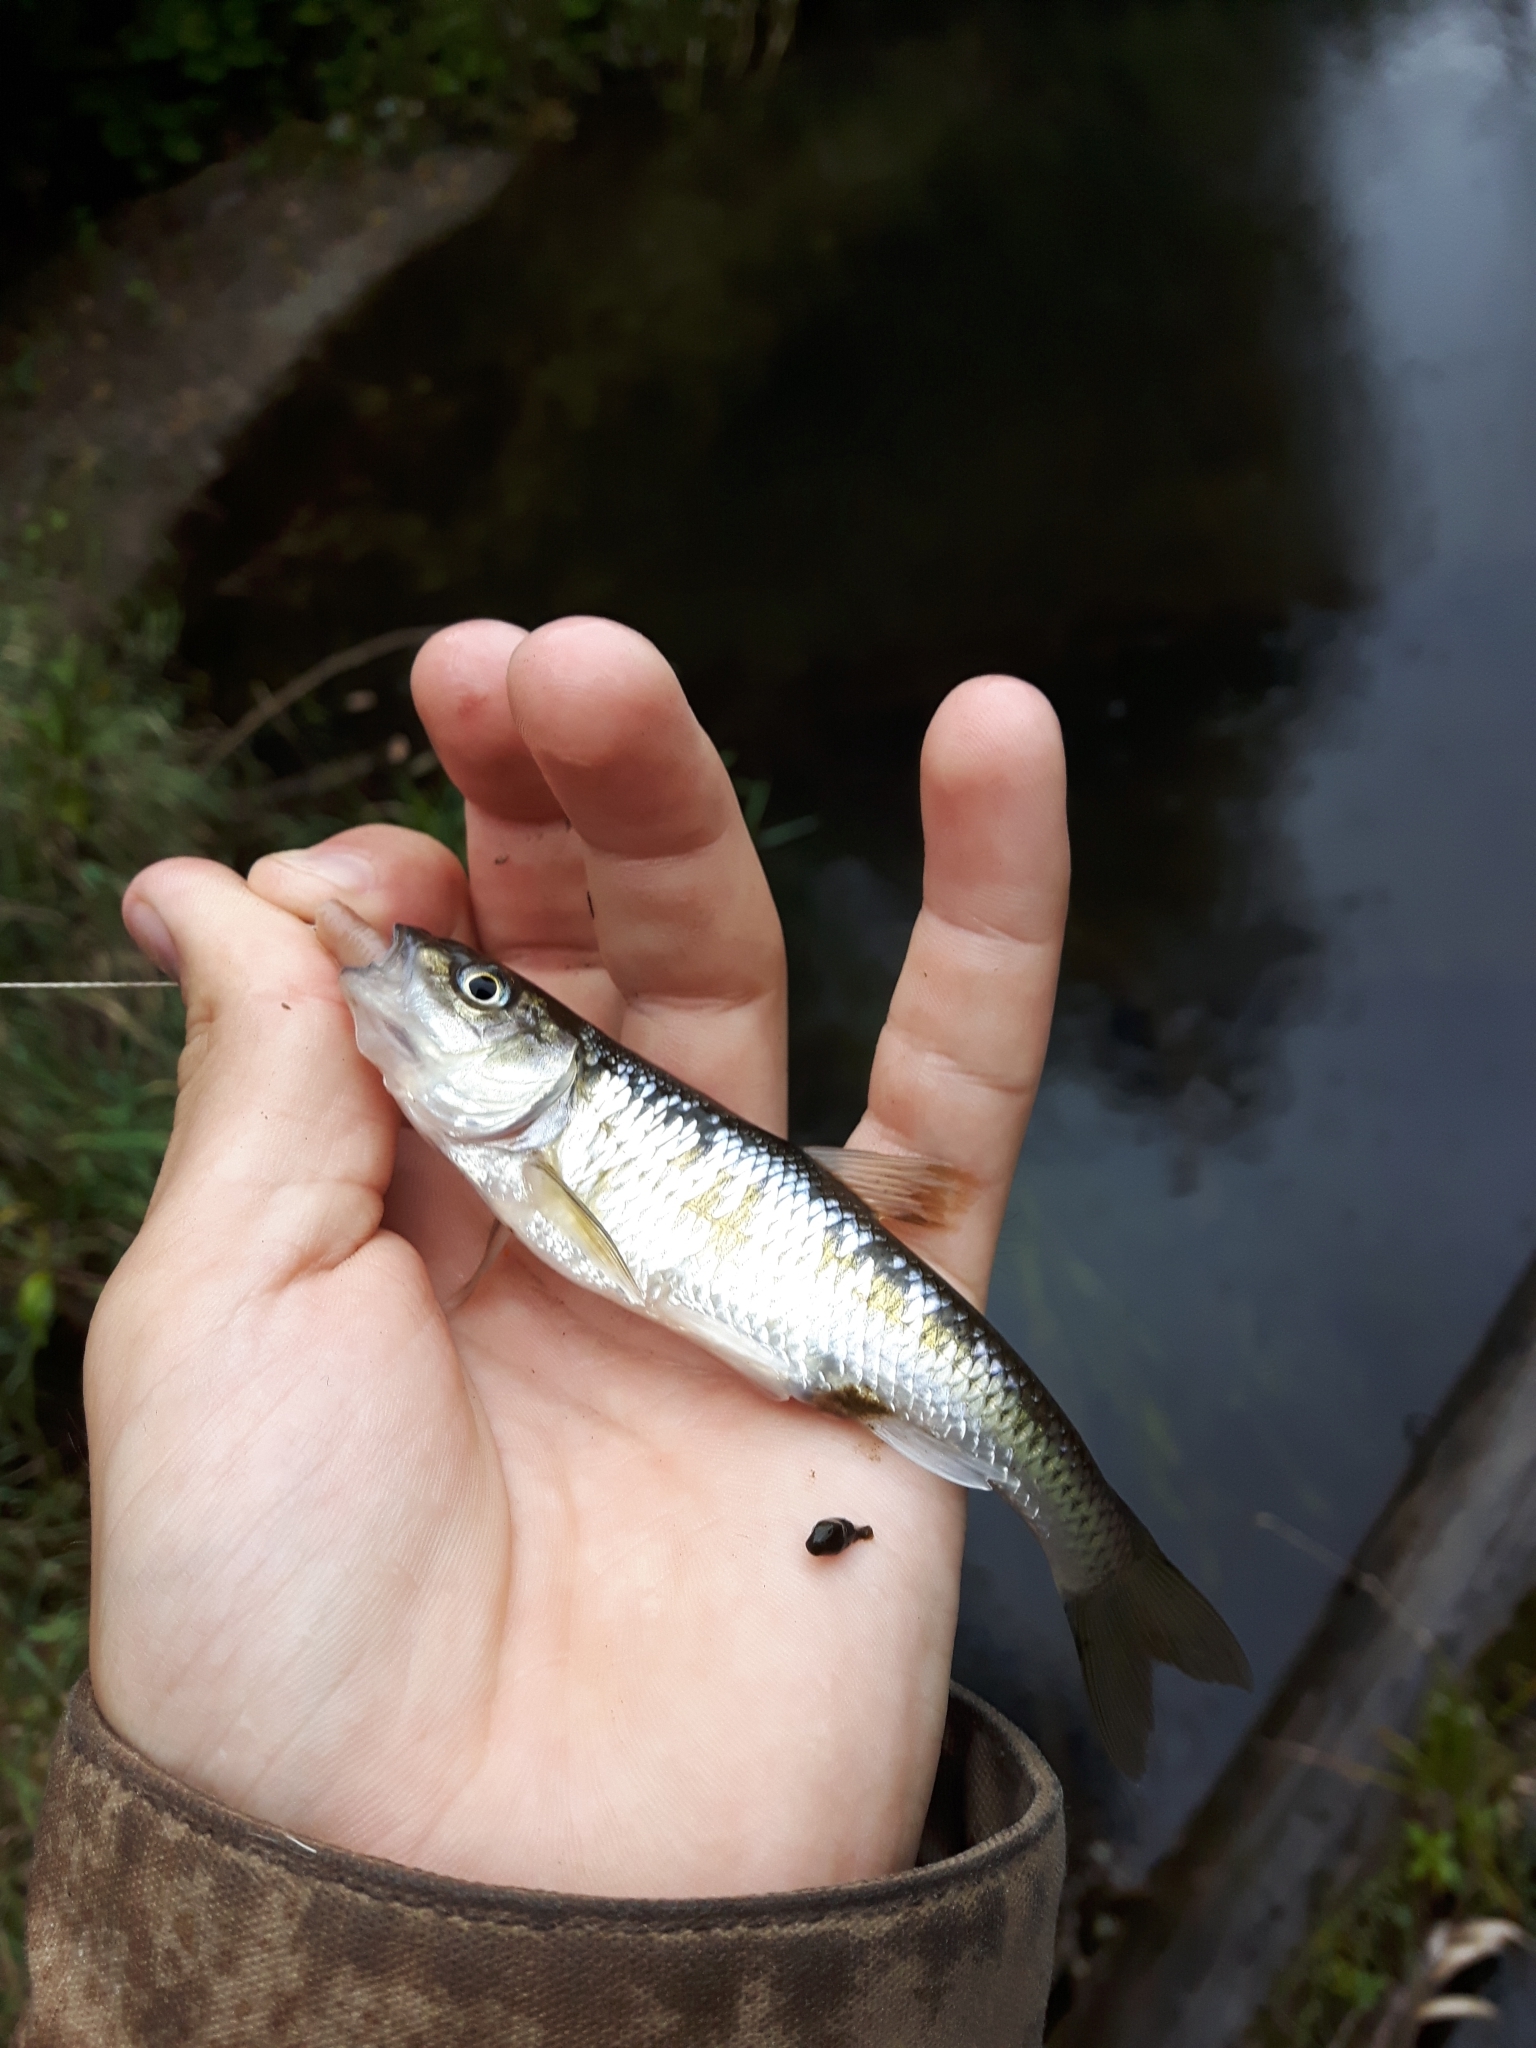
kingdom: Animalia
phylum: Chordata
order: Cypriniformes
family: Cyprinidae
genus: Luxilus
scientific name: Luxilus cornutus
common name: Common shiner
